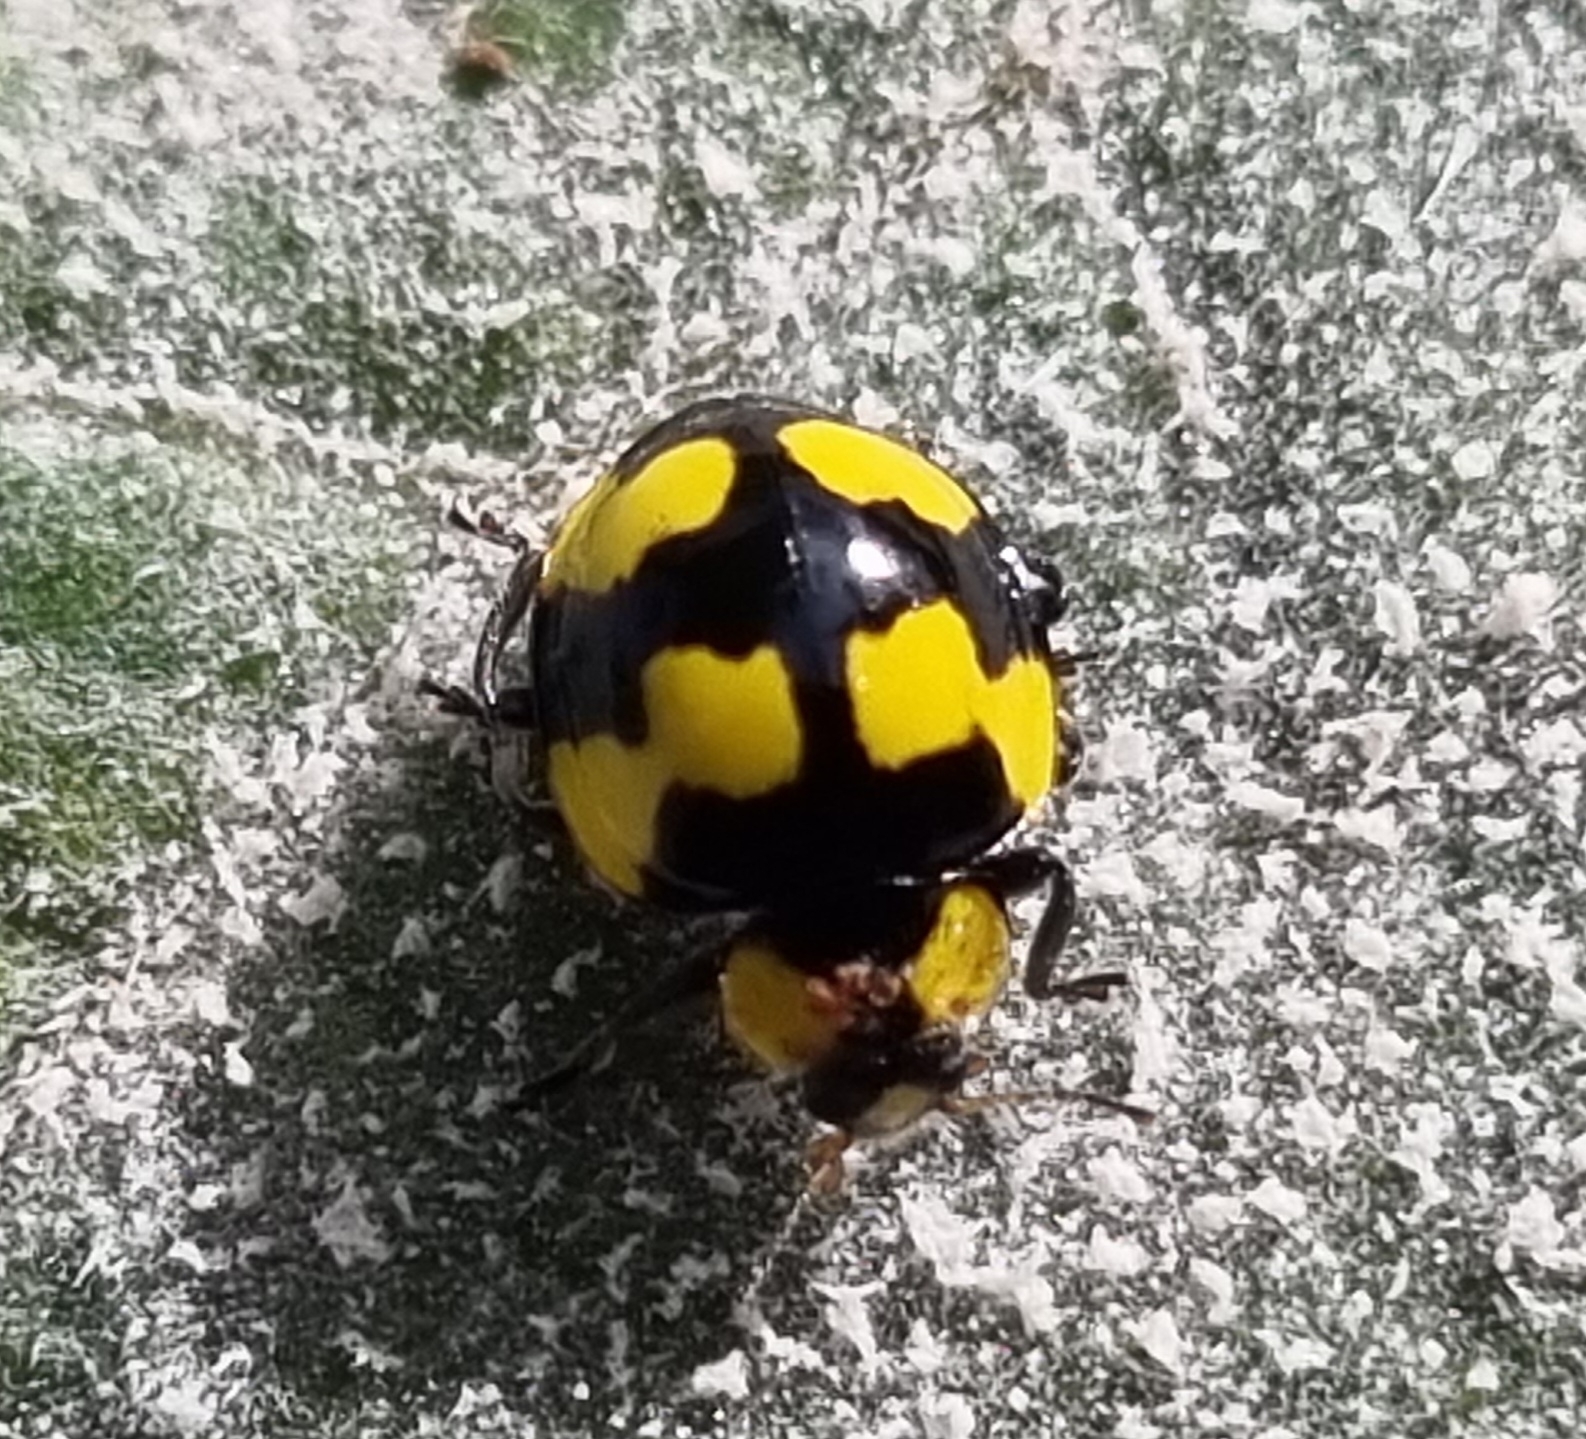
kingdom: Animalia
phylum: Arthropoda
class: Insecta
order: Coleoptera
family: Coccinellidae
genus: Illeis
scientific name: Illeis galbula
